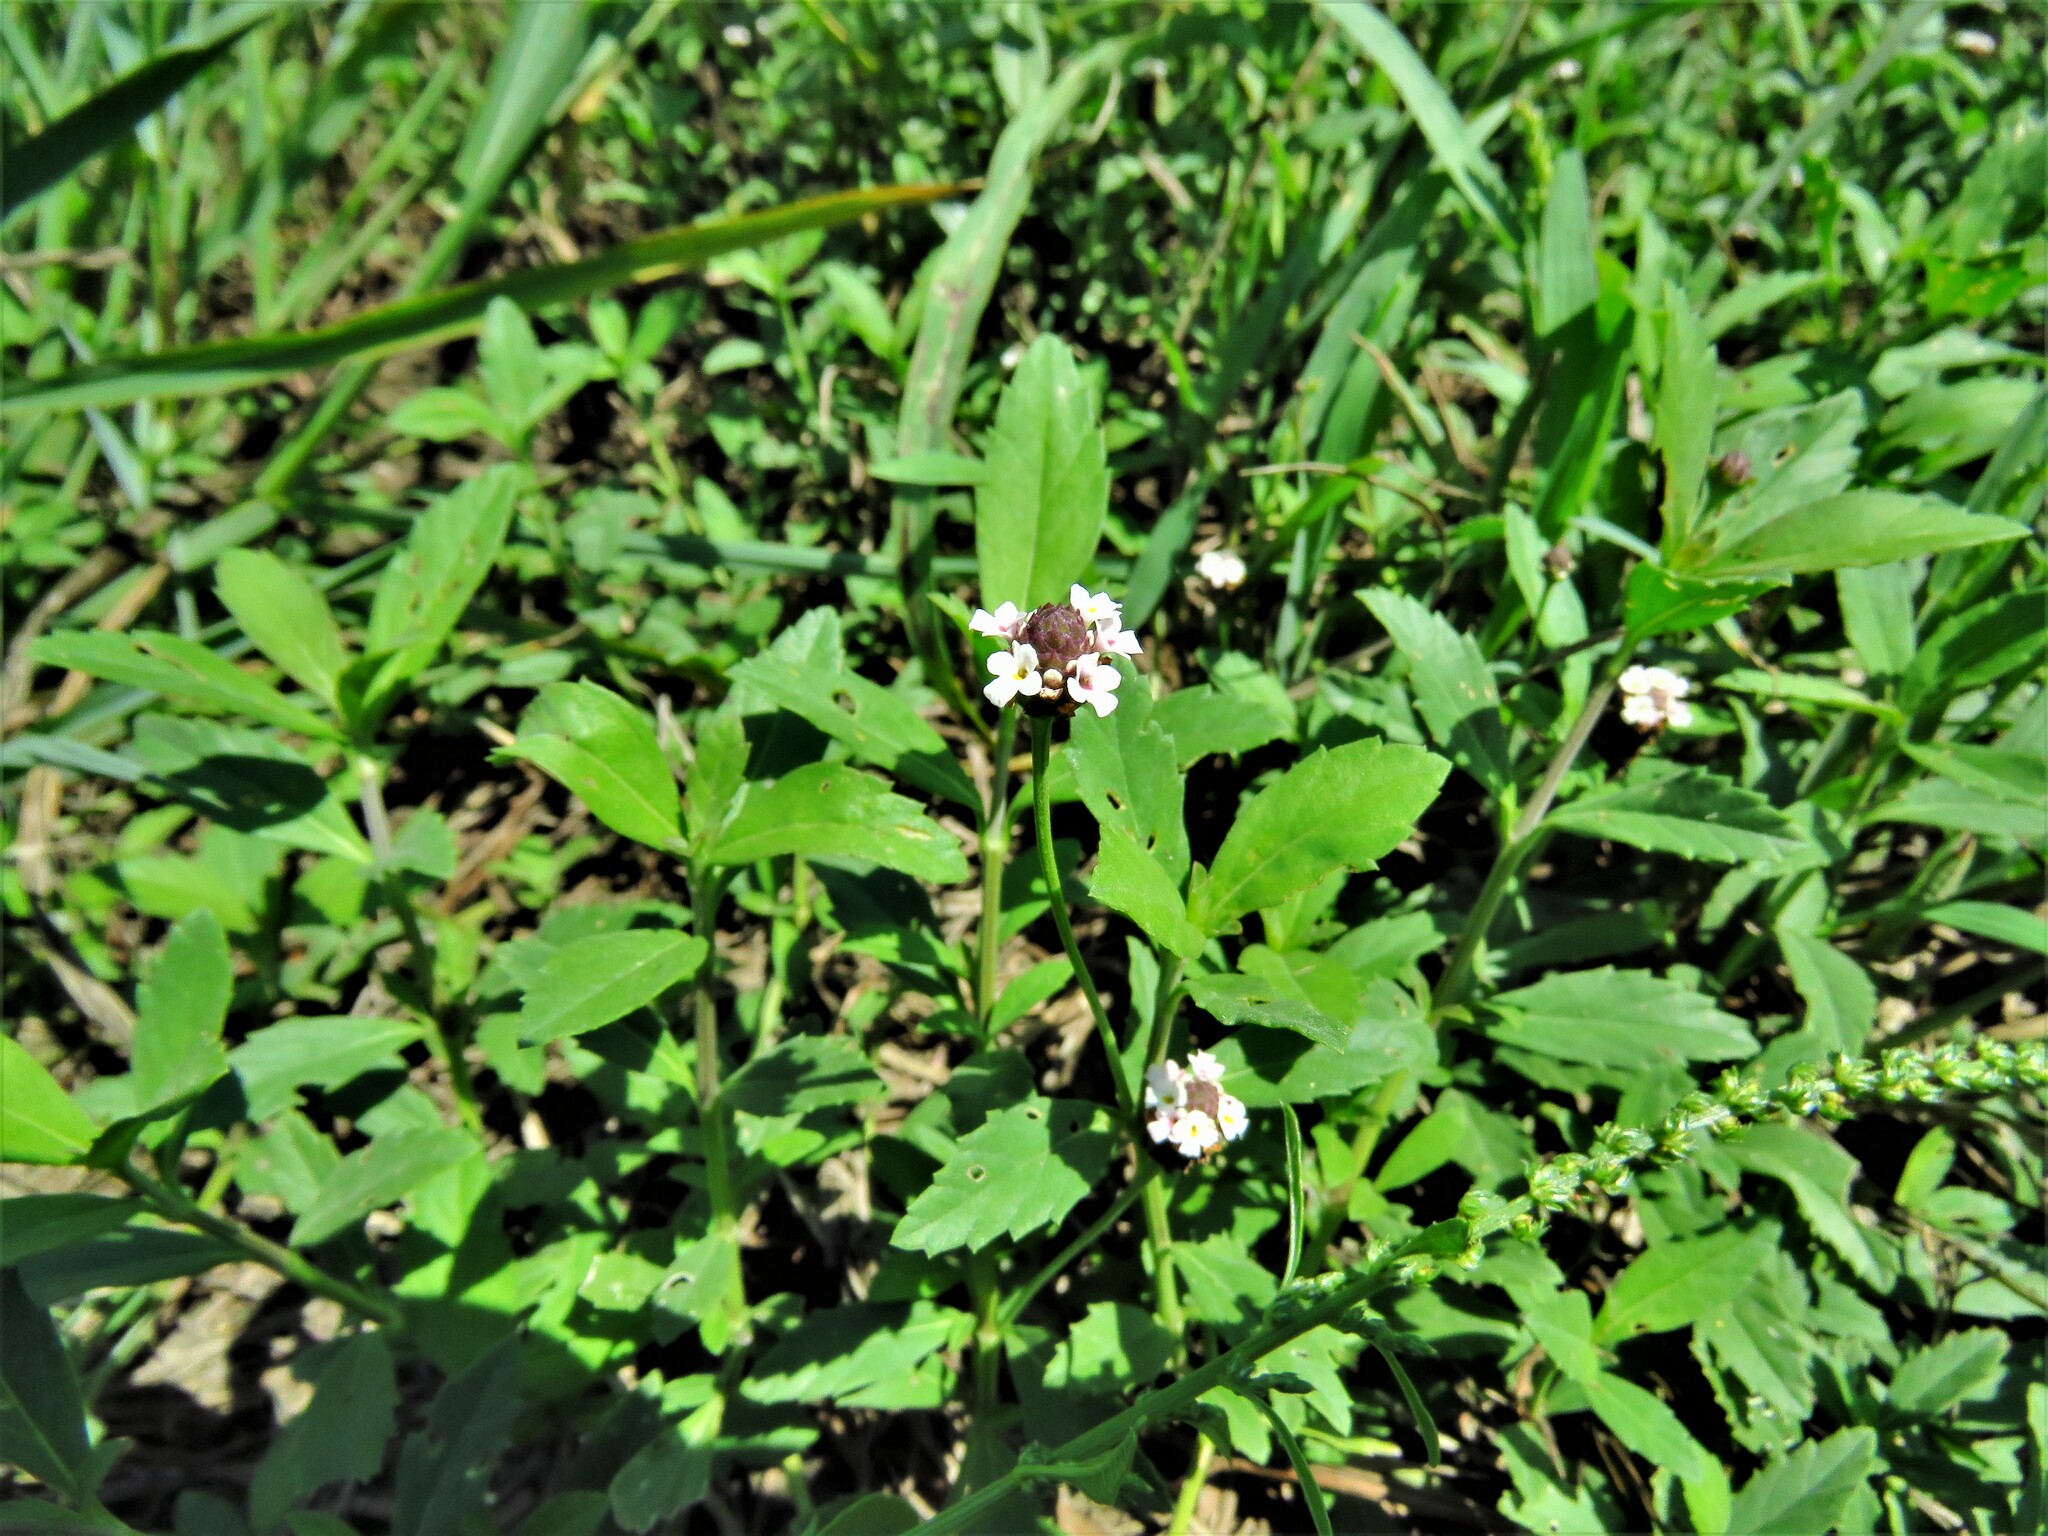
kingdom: Plantae
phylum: Tracheophyta
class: Magnoliopsida
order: Lamiales
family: Verbenaceae
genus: Phyla
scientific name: Phyla nodiflora
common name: Frogfruit
